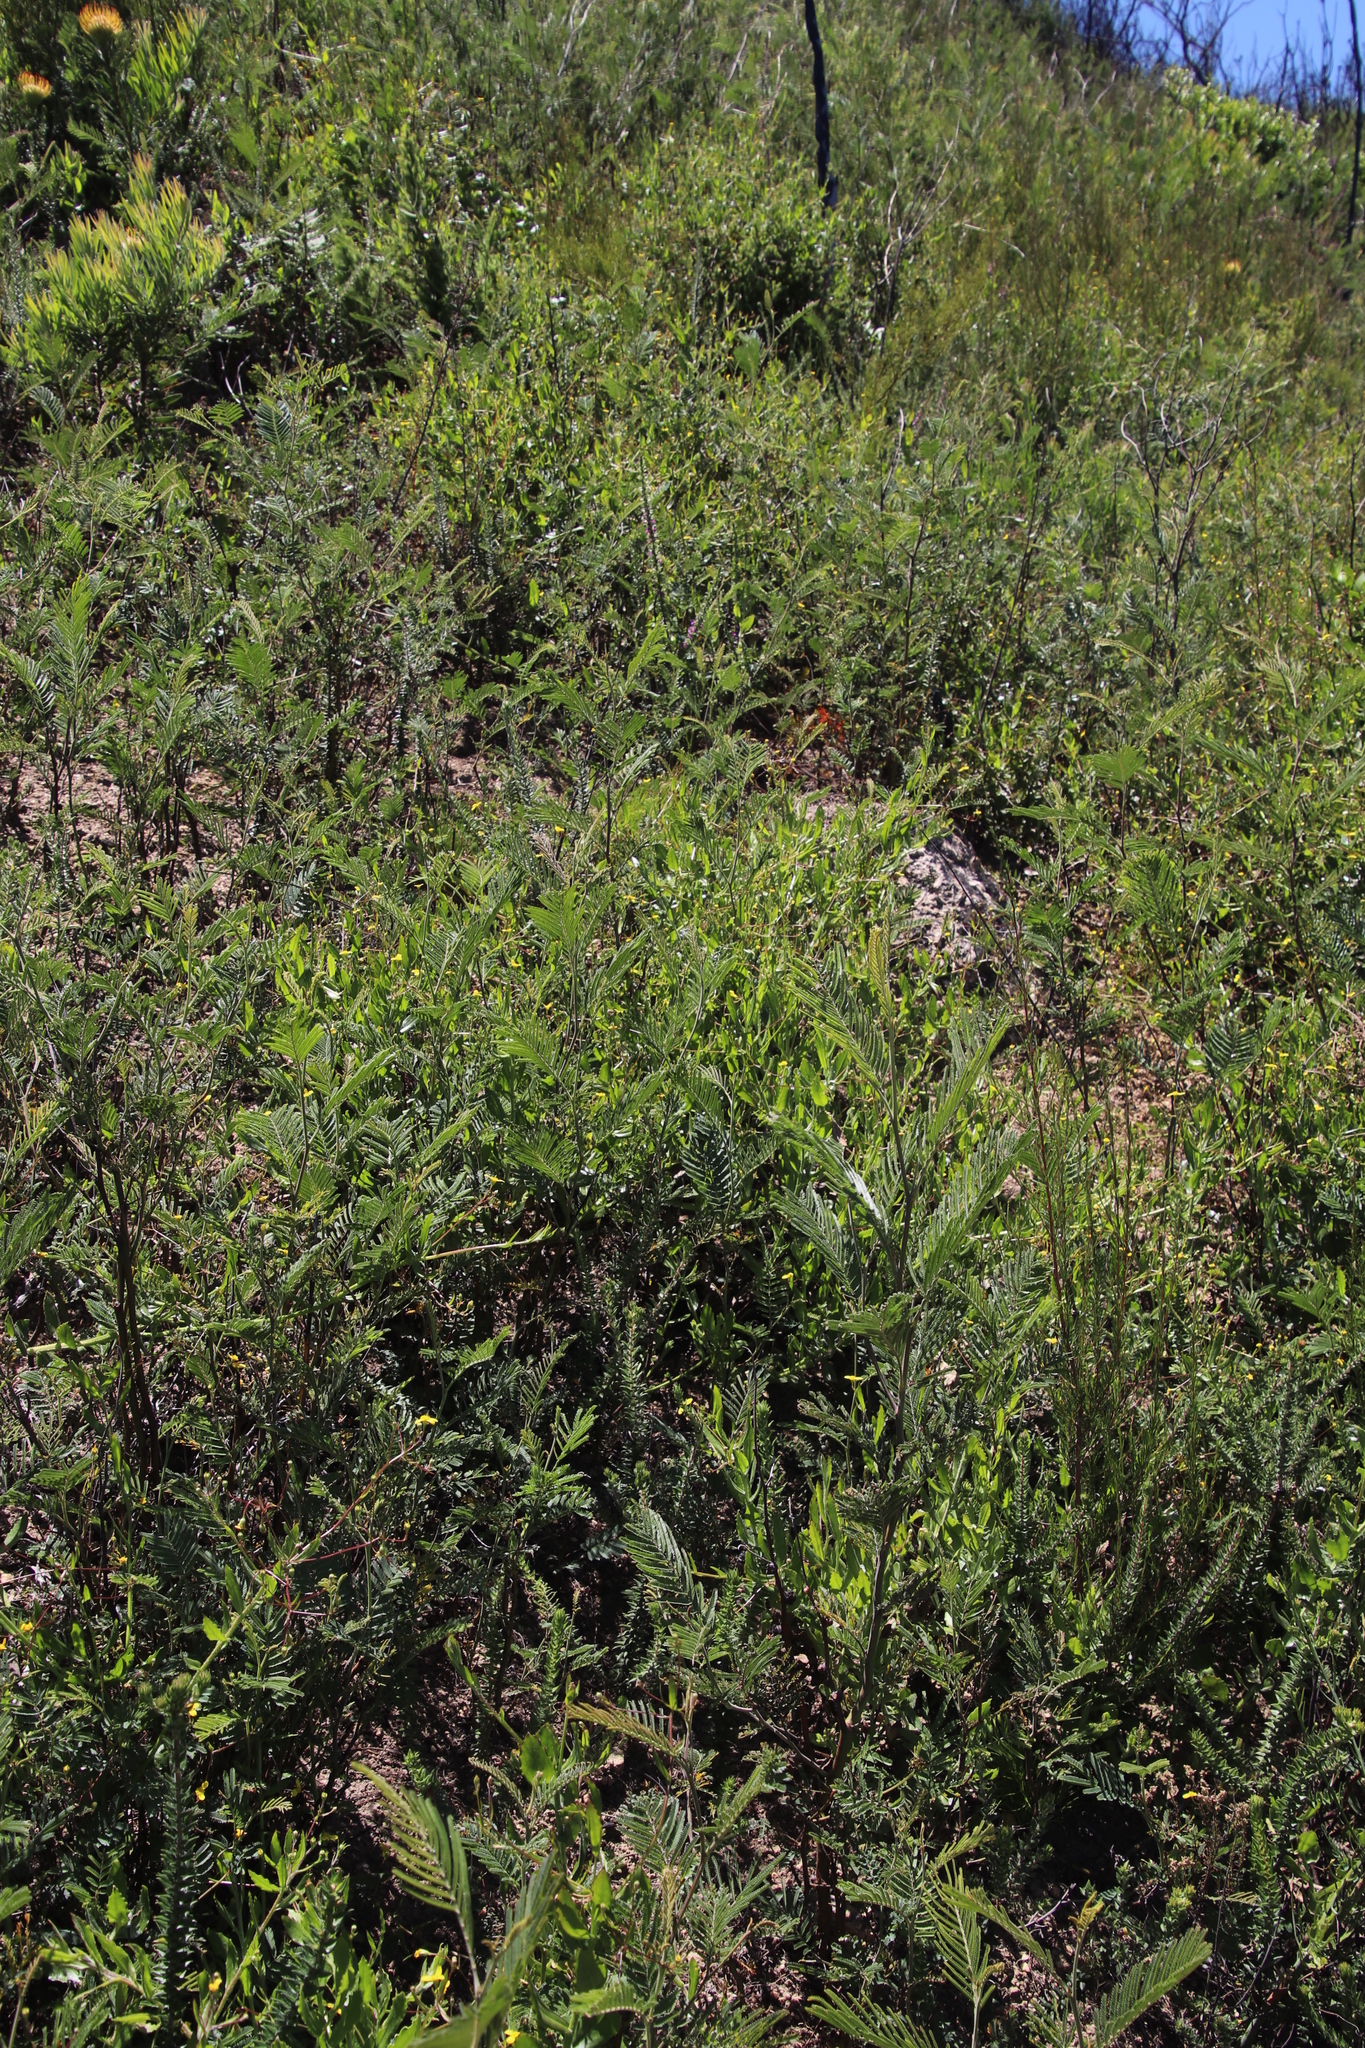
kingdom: Plantae
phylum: Tracheophyta
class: Magnoliopsida
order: Fabales
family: Fabaceae
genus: Acacia
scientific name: Acacia mearnsii
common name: Black wattle
